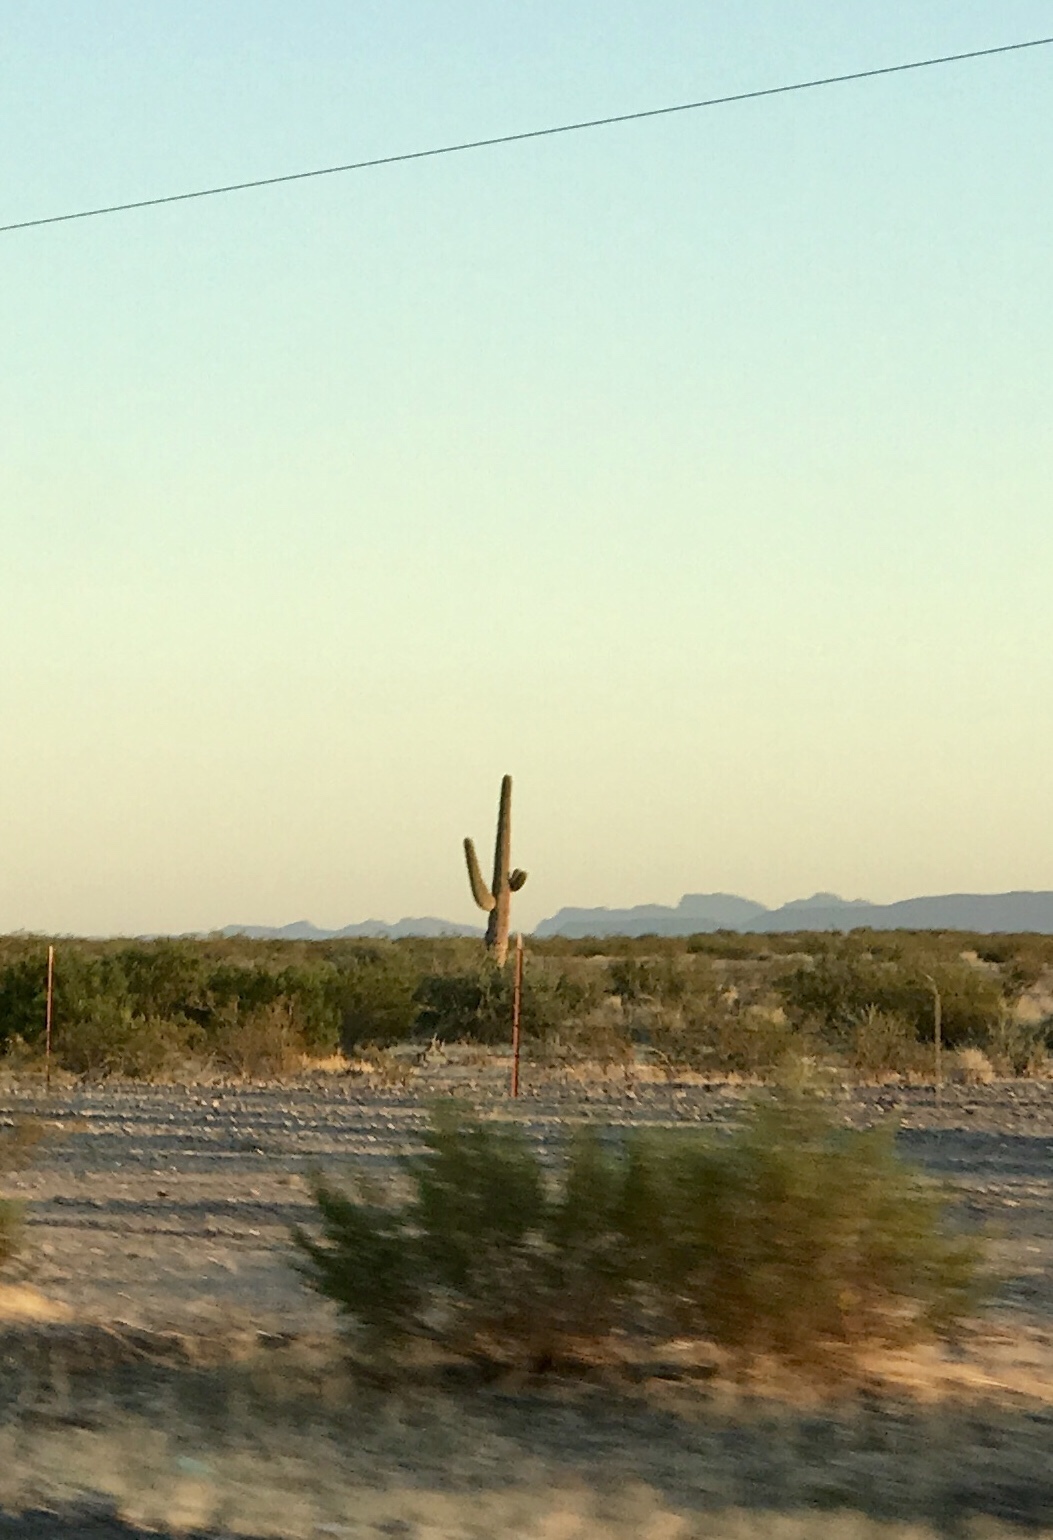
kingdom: Plantae
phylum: Tracheophyta
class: Magnoliopsida
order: Caryophyllales
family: Cactaceae
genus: Carnegiea
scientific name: Carnegiea gigantea
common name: Saguaro
